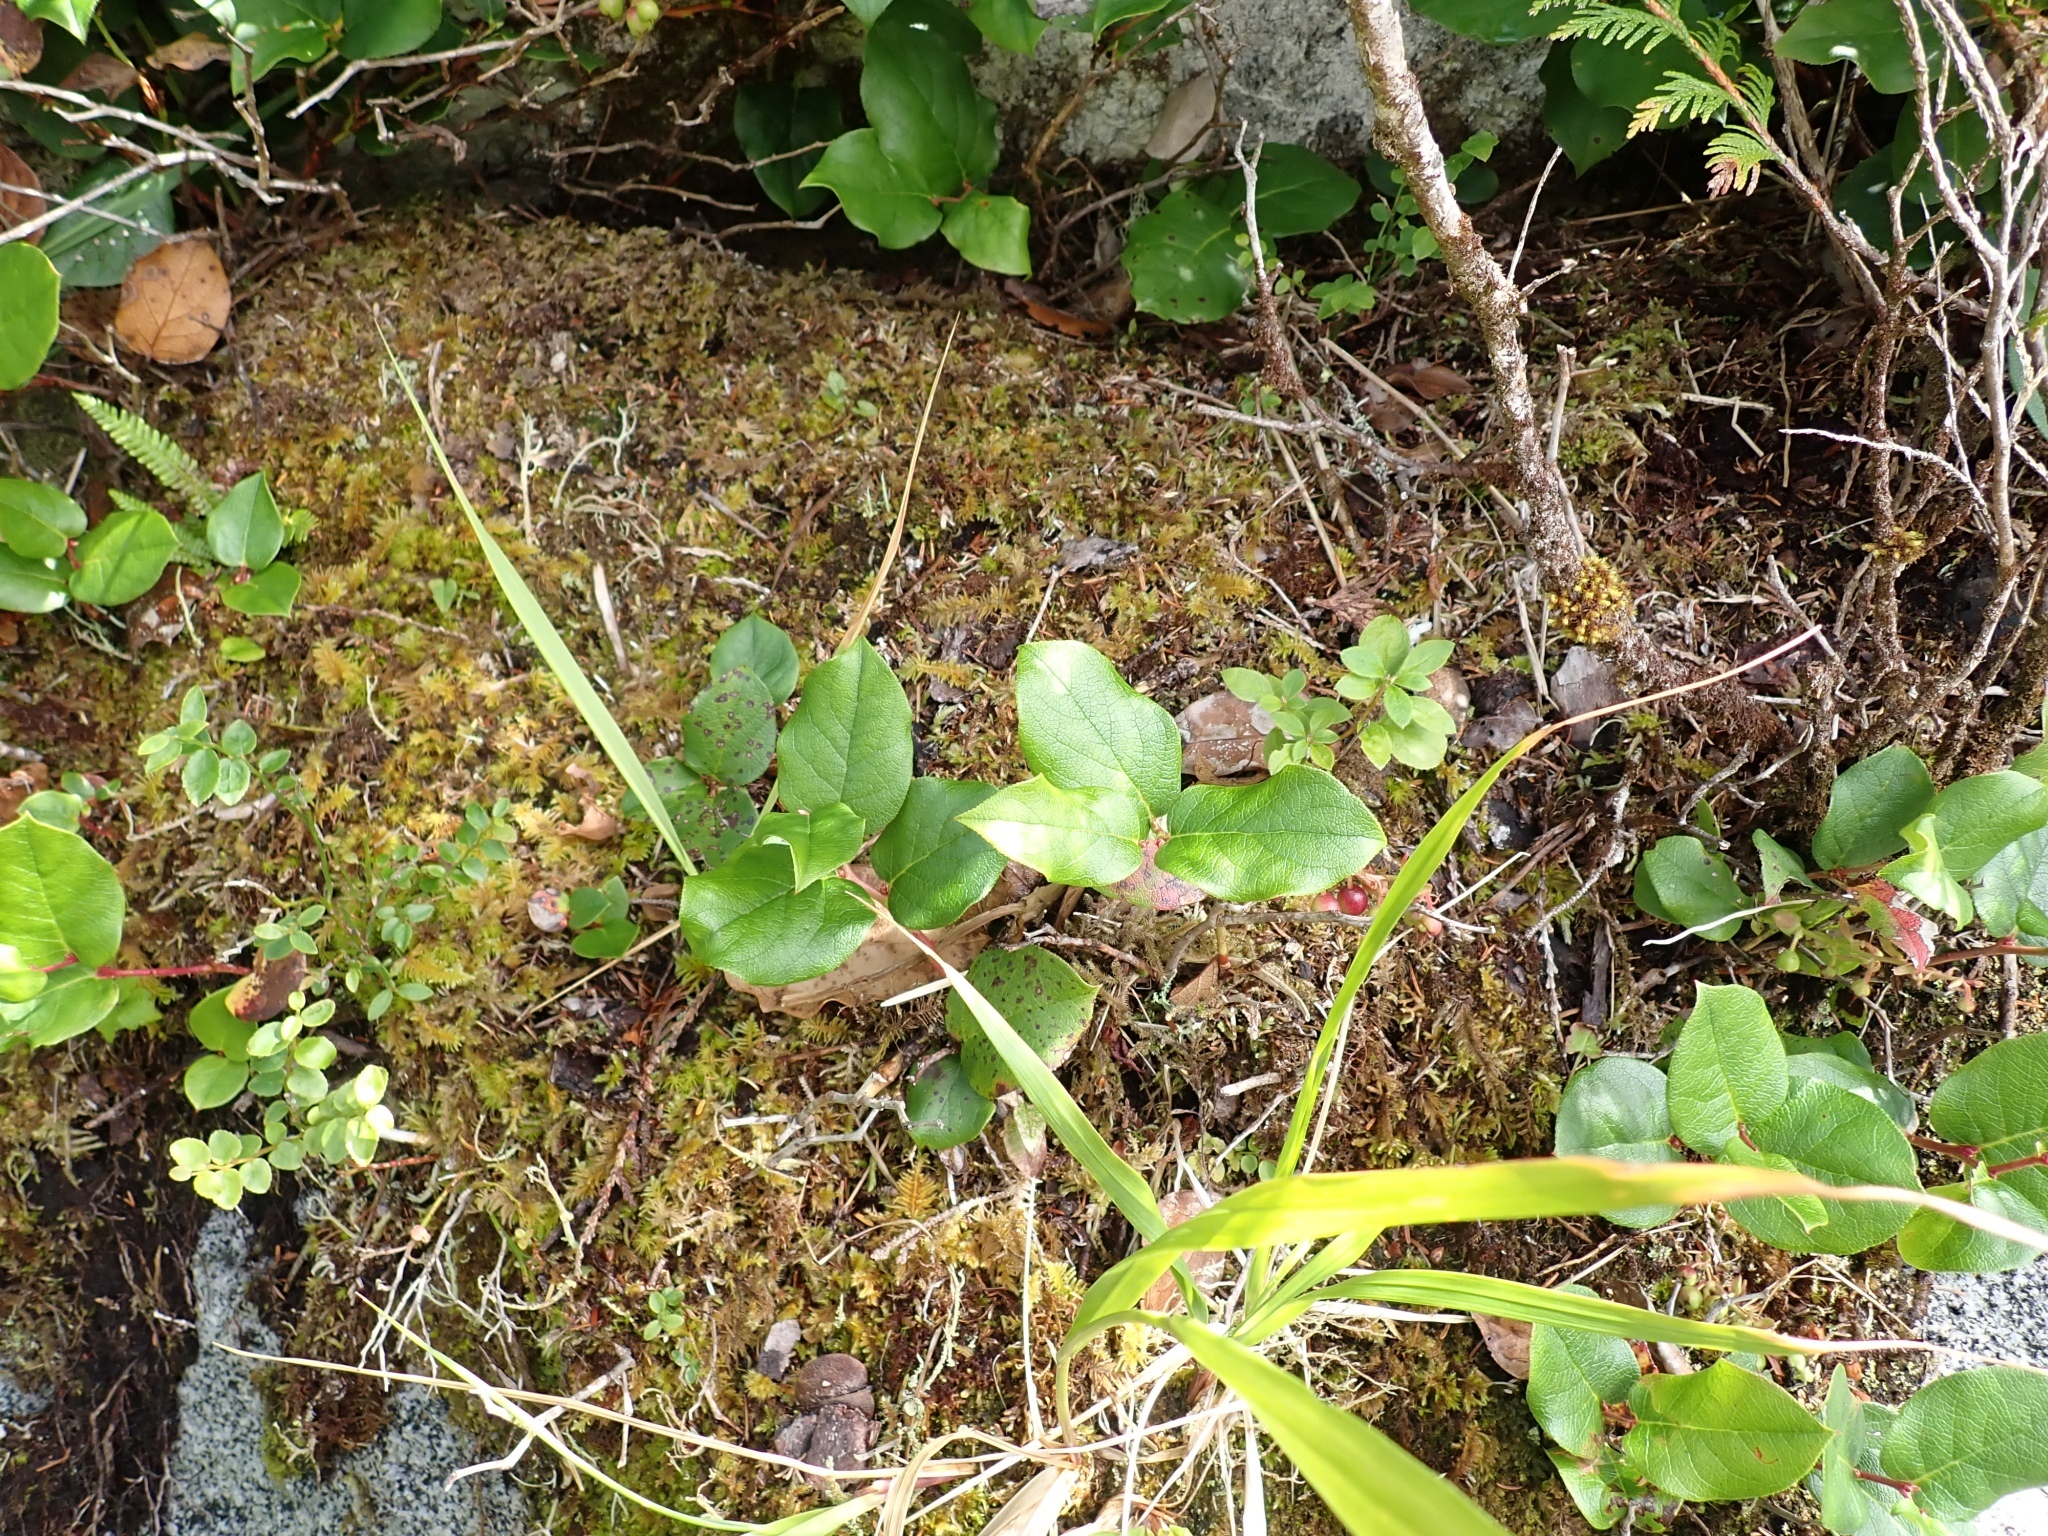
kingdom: Plantae
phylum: Tracheophyta
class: Magnoliopsida
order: Ericales
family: Ericaceae
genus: Gaultheria
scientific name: Gaultheria shallon
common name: Shallon
